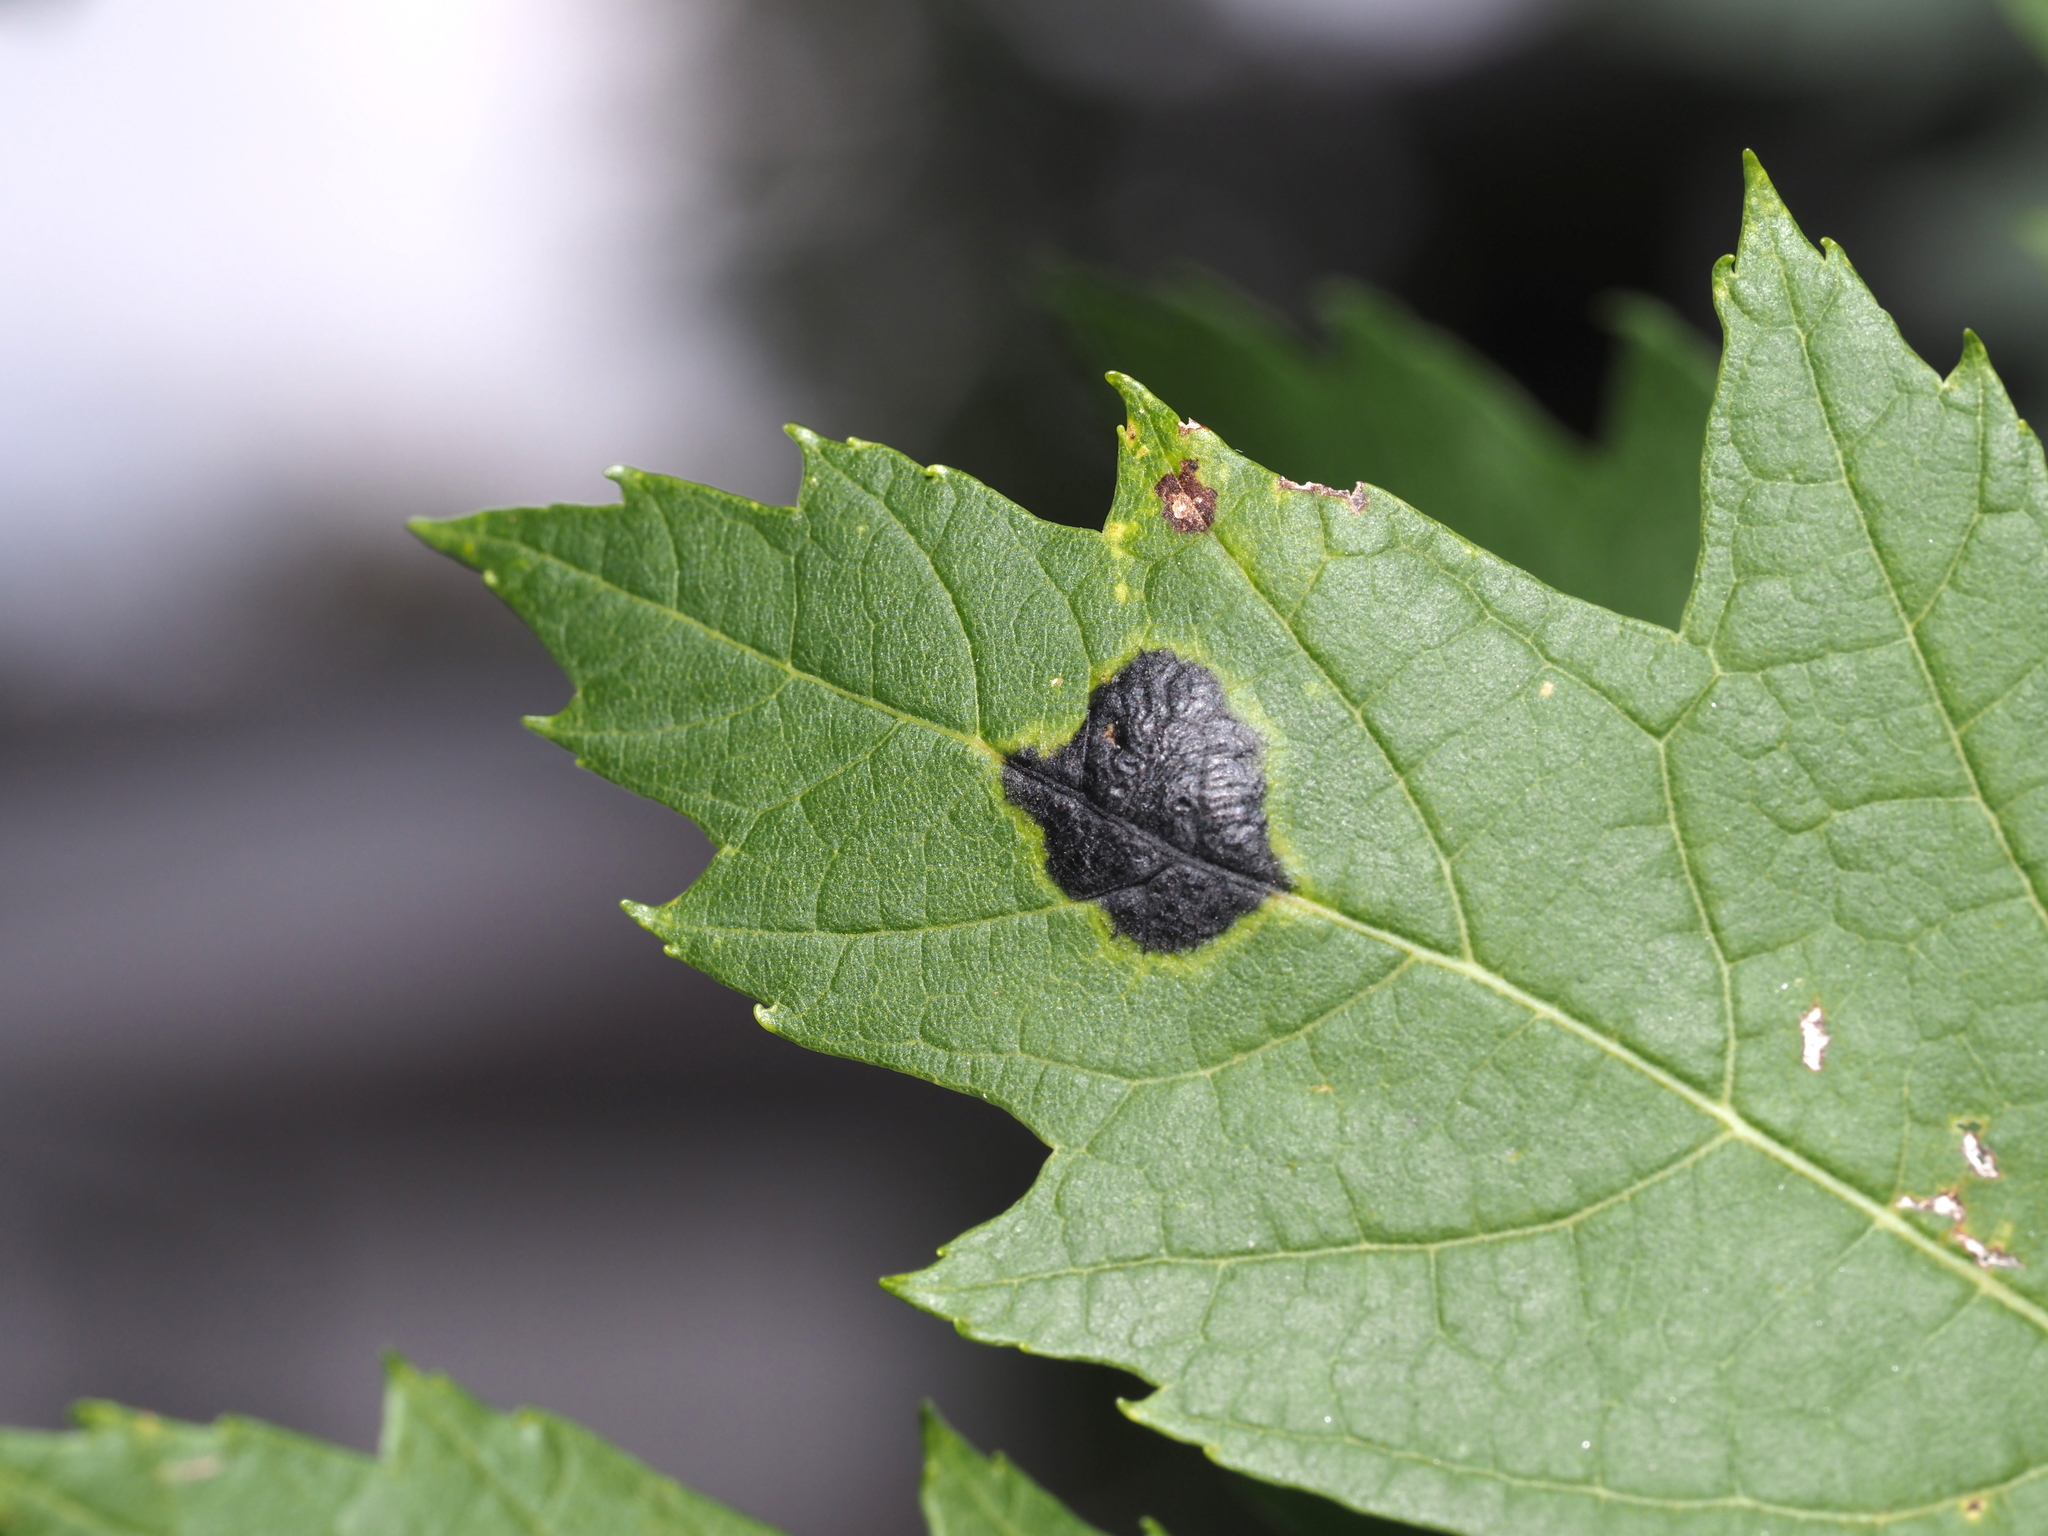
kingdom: Fungi
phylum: Ascomycota
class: Leotiomycetes
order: Rhytismatales
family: Rhytismataceae
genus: Rhytisma
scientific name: Rhytisma americanum
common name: American tar spot
